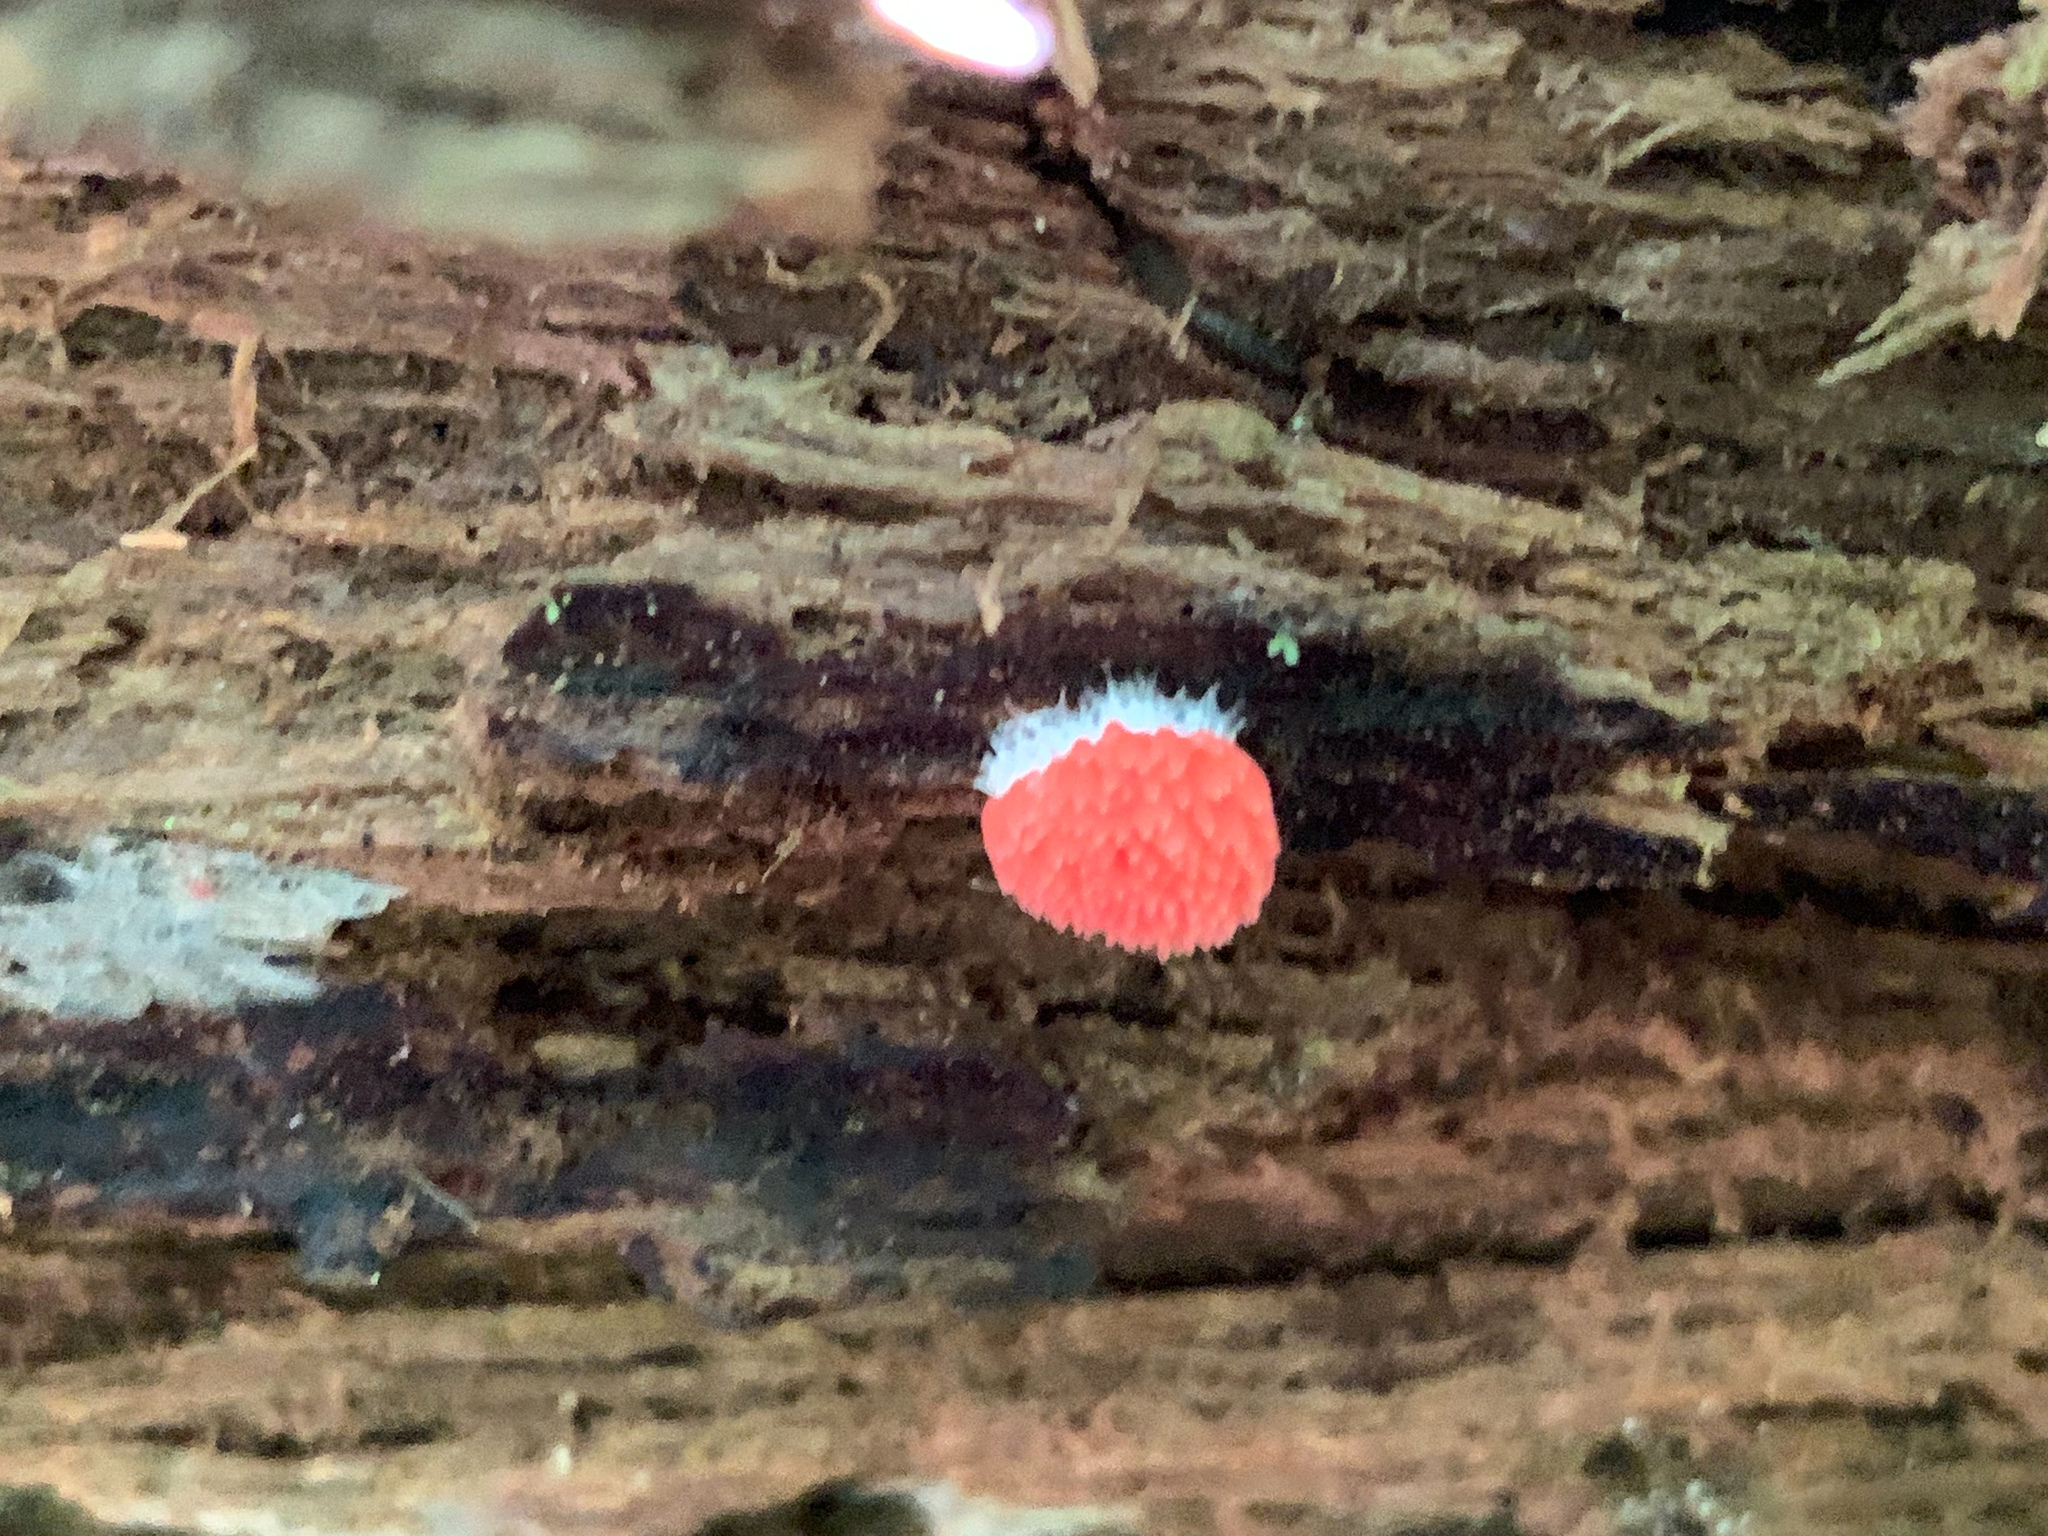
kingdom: Protozoa
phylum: Mycetozoa
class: Myxomycetes
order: Cribrariales
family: Tubiferaceae
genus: Tubifera
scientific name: Tubifera ferruginosa
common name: Red raspberry slime mold
